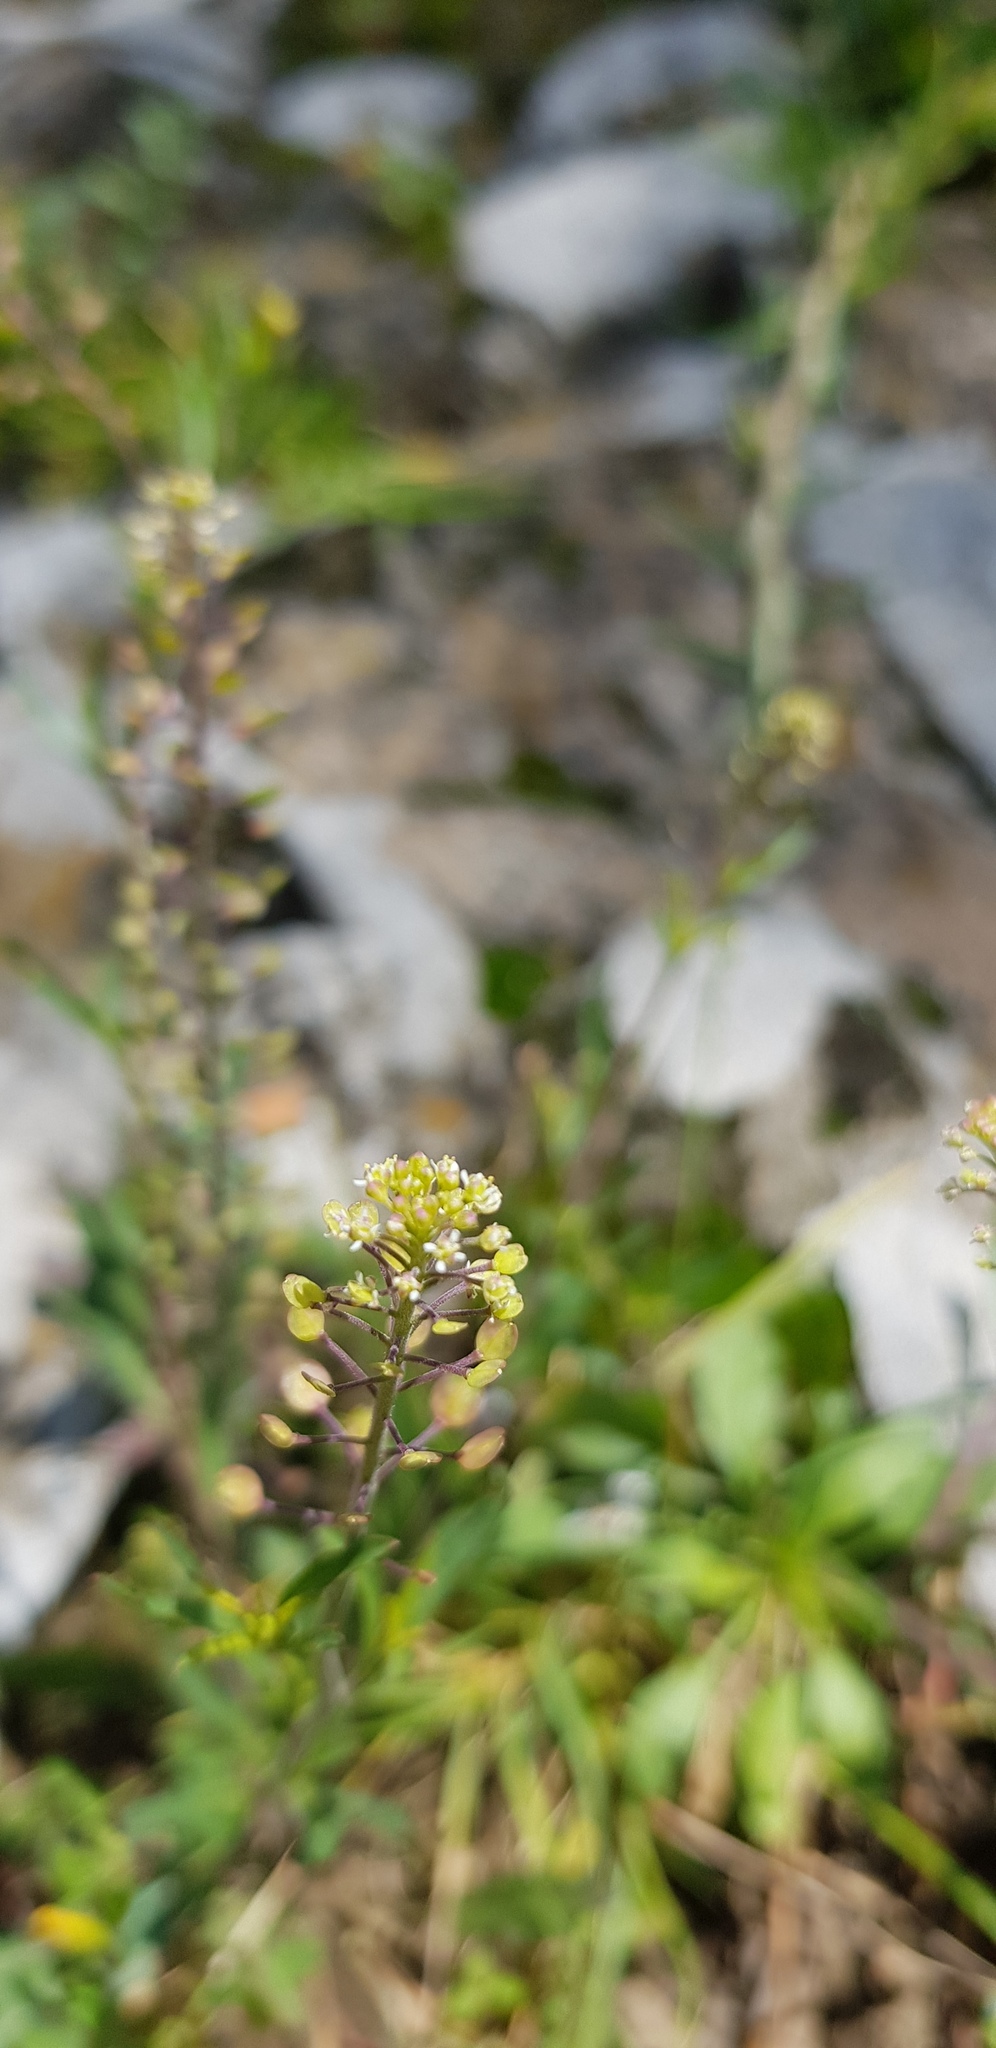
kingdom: Plantae
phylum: Tracheophyta
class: Magnoliopsida
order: Brassicales
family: Brassicaceae
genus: Lepidium
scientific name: Lepidium virginicum
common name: Least pepperwort
